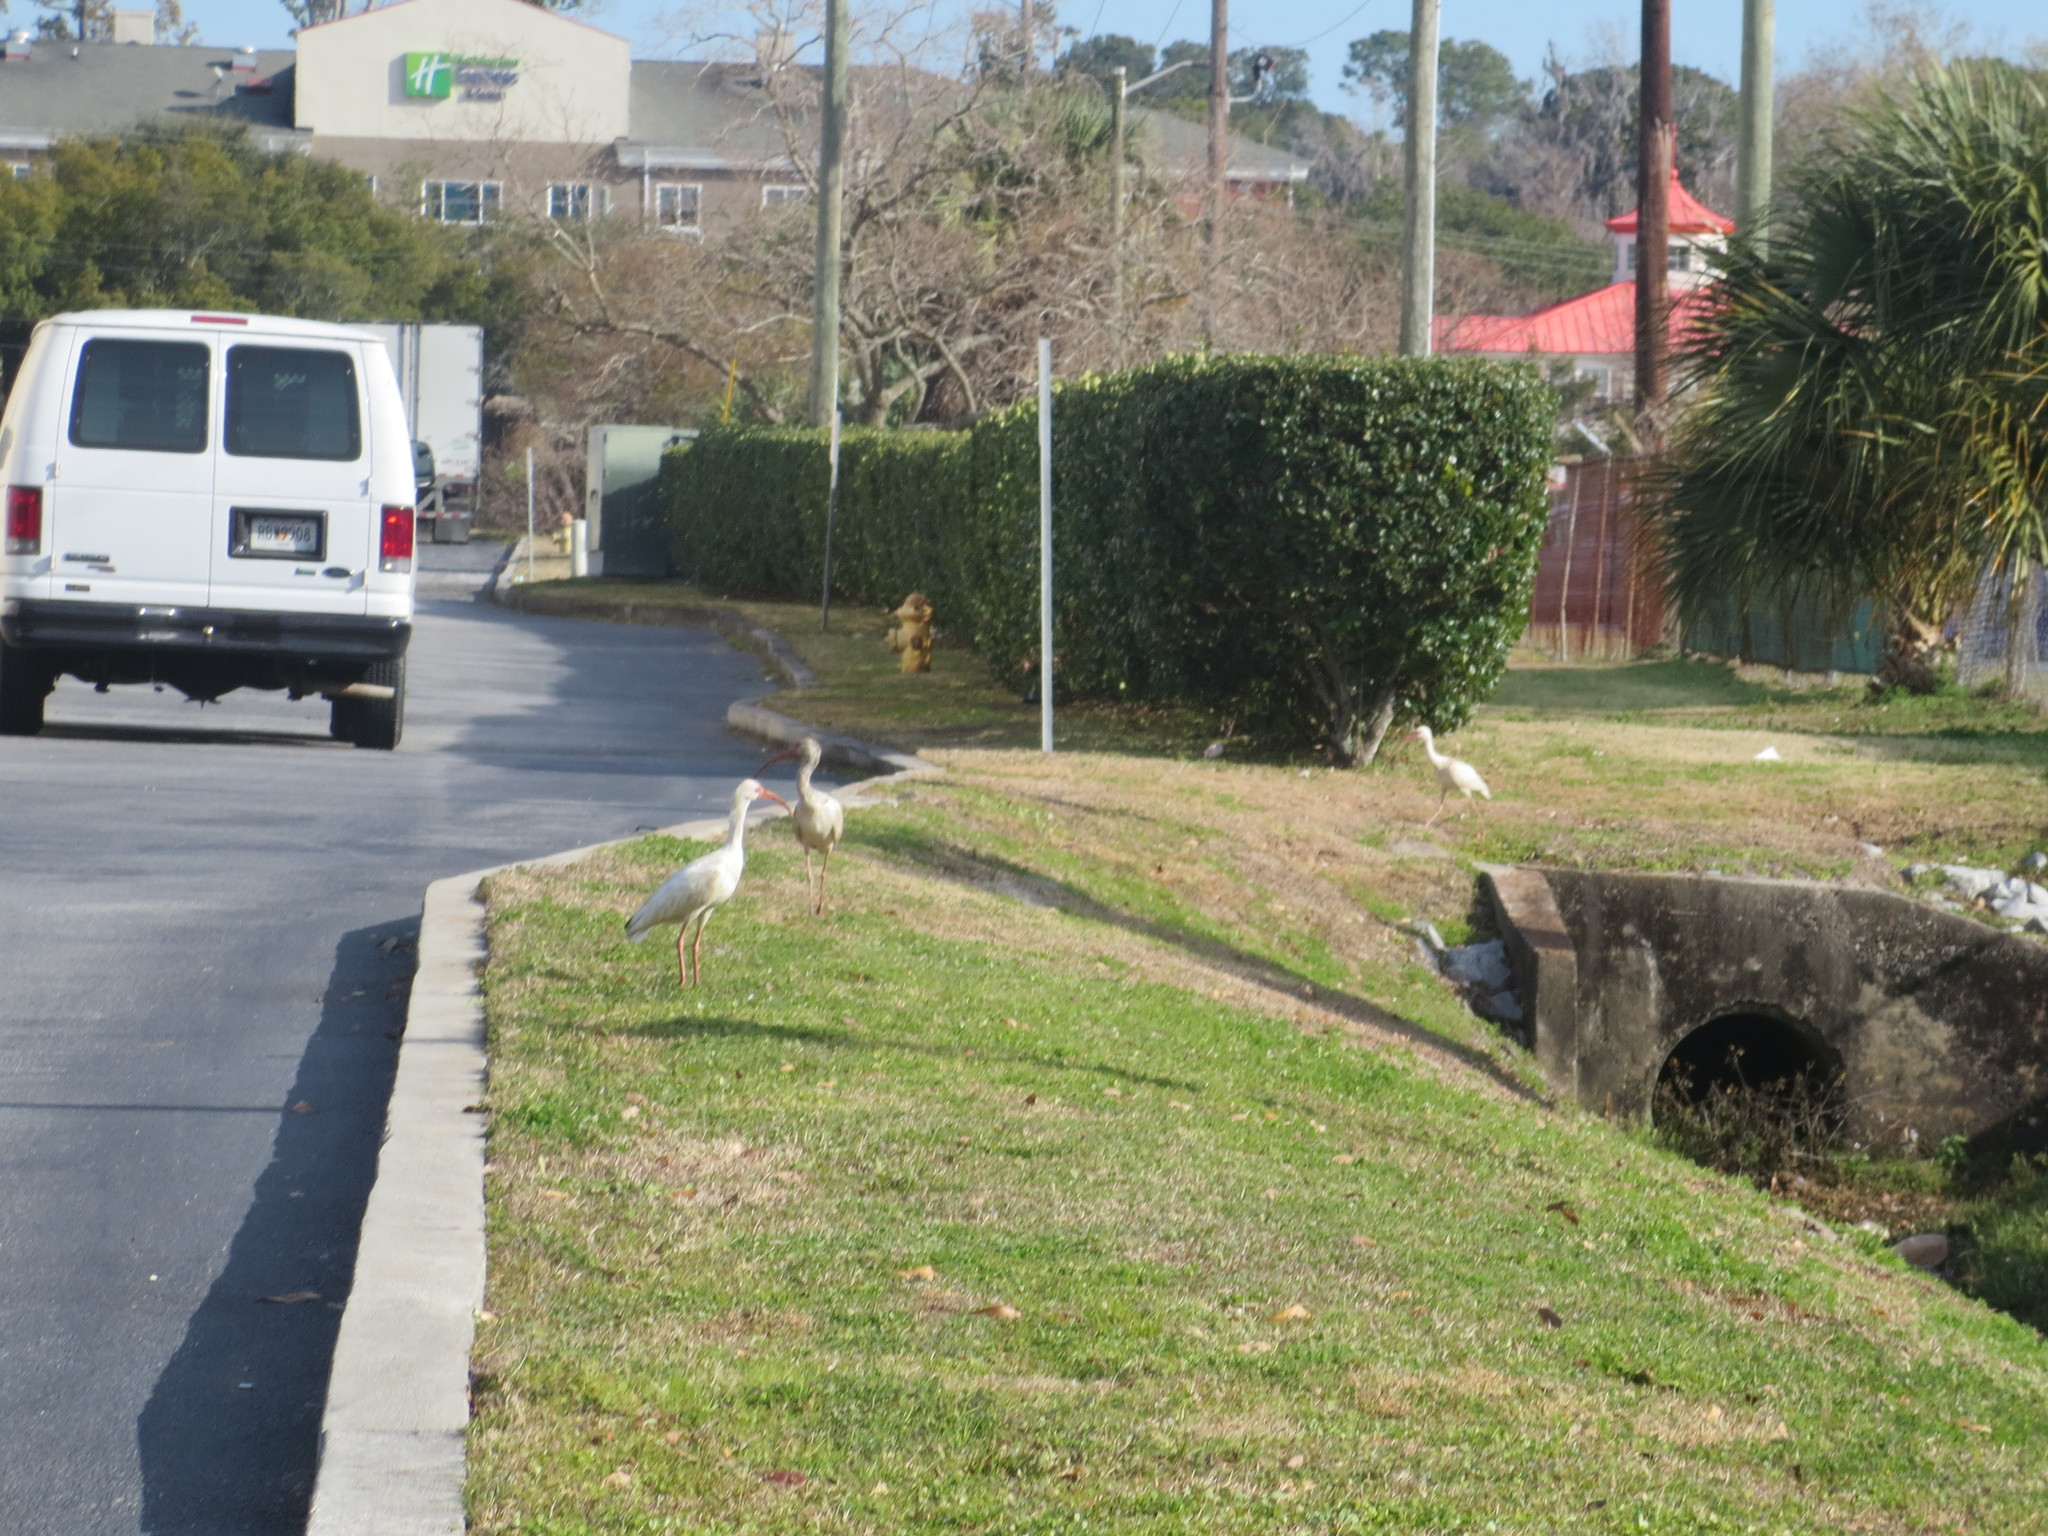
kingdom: Animalia
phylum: Chordata
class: Aves
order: Pelecaniformes
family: Threskiornithidae
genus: Eudocimus
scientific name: Eudocimus albus
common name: White ibis
